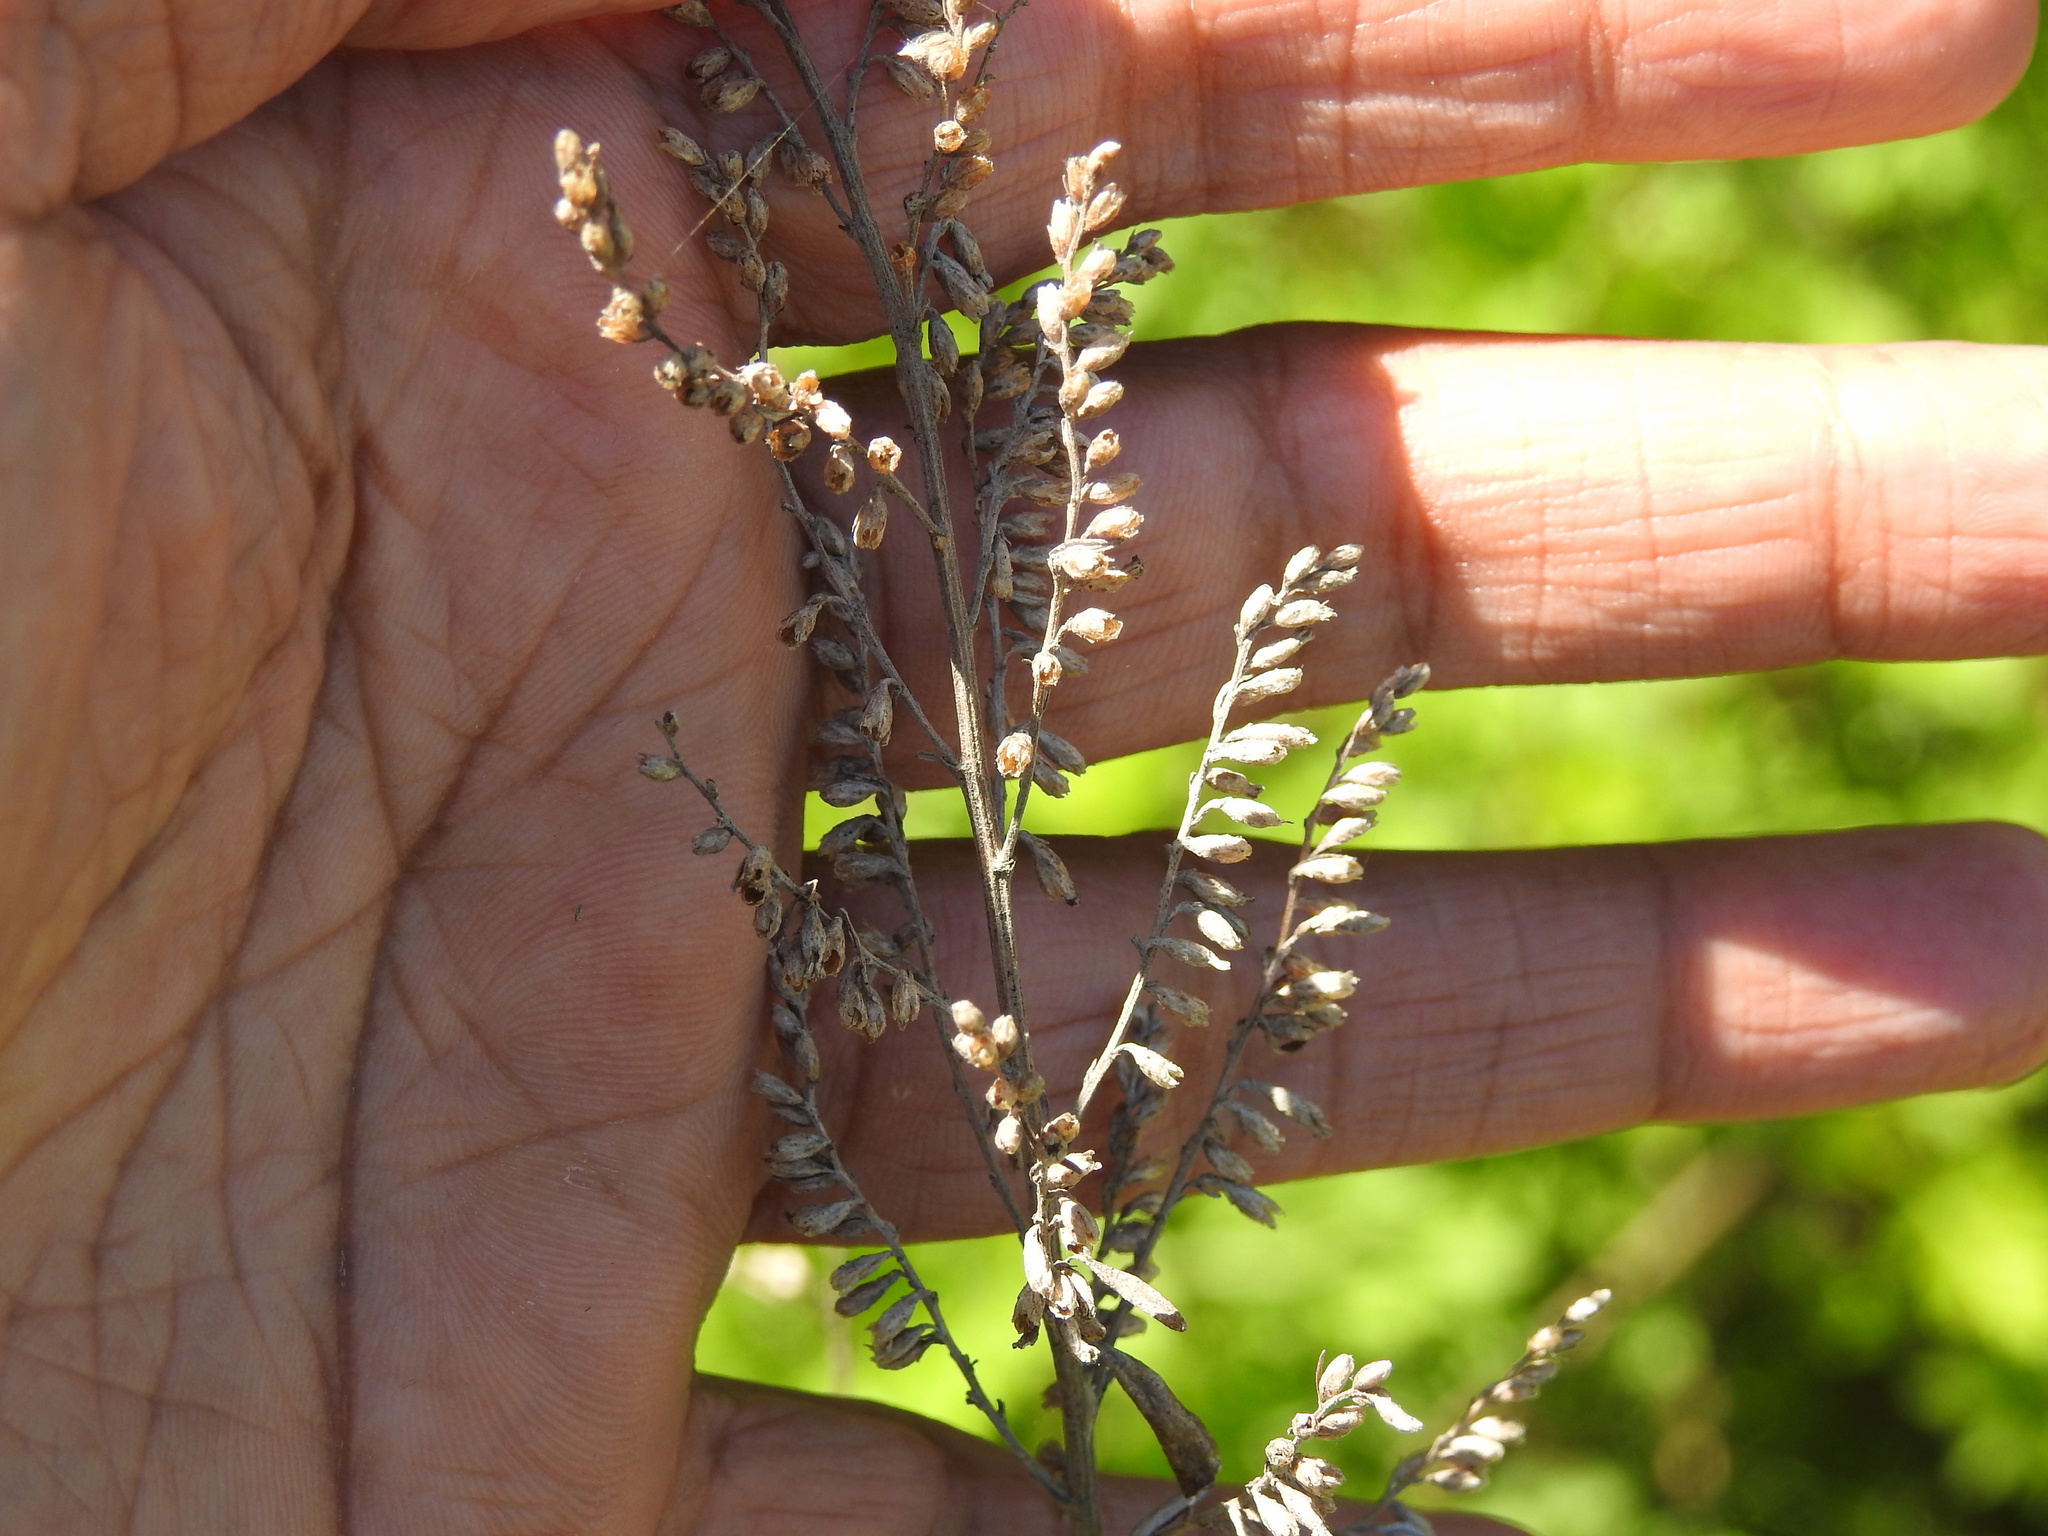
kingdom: Plantae
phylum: Tracheophyta
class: Magnoliopsida
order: Asterales
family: Asteraceae
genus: Artemisia
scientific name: Artemisia vulgaris
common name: Mugwort
